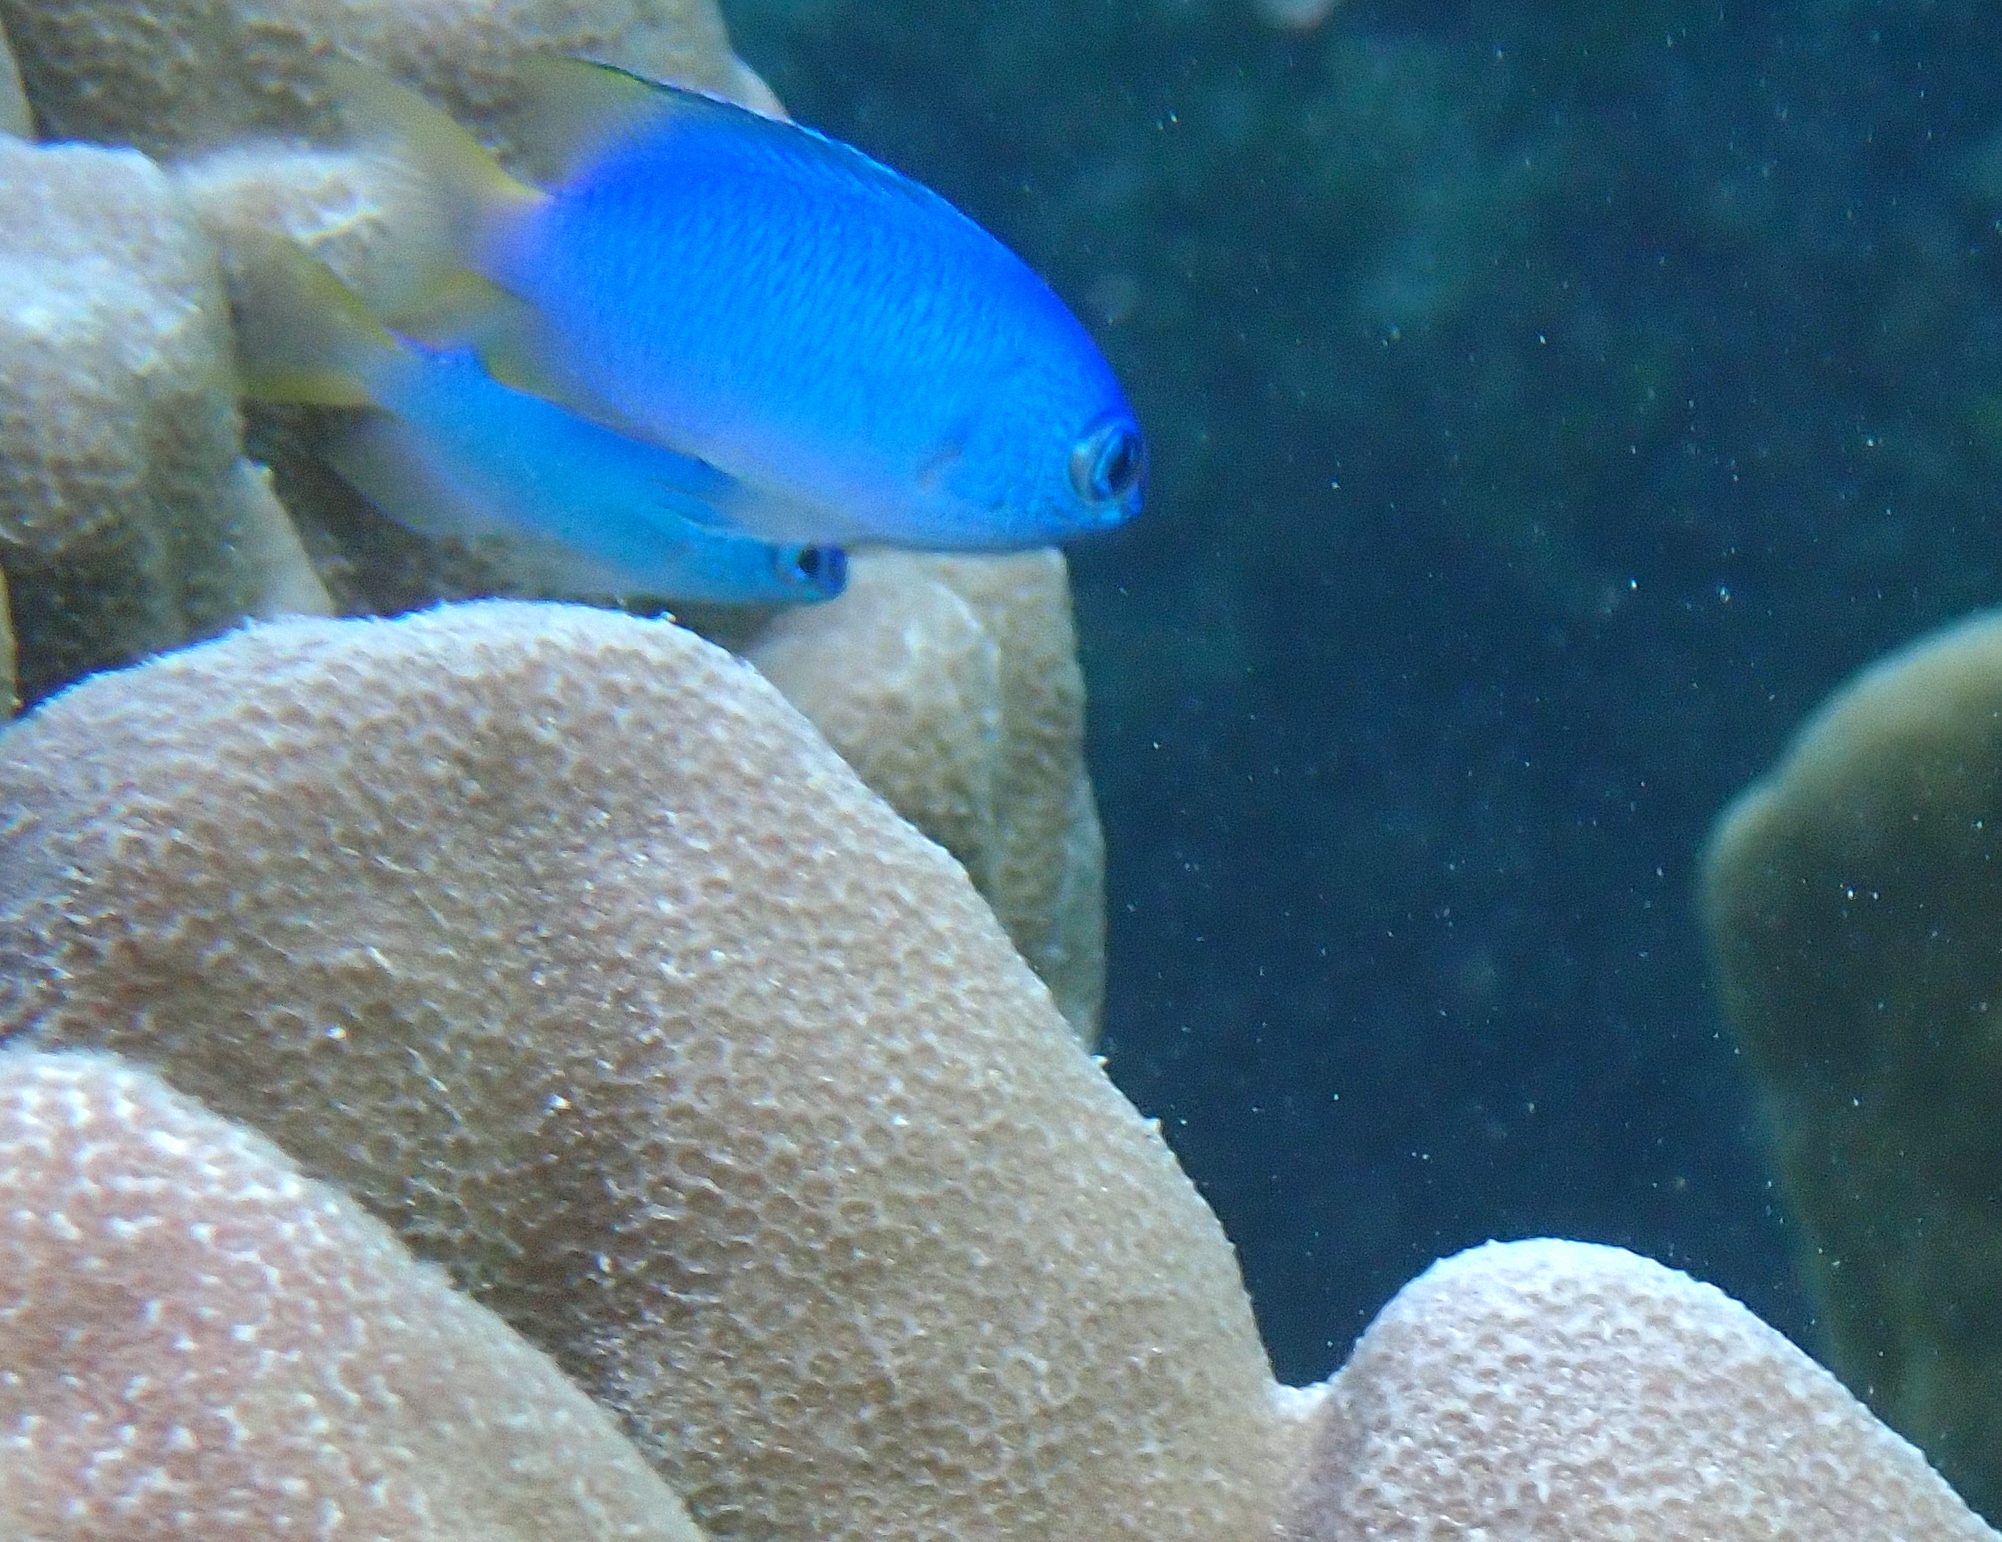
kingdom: Animalia
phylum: Chordata
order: Perciformes
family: Pomacentridae
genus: Pomacentrus
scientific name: Pomacentrus pavo
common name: Sapphire damsel
